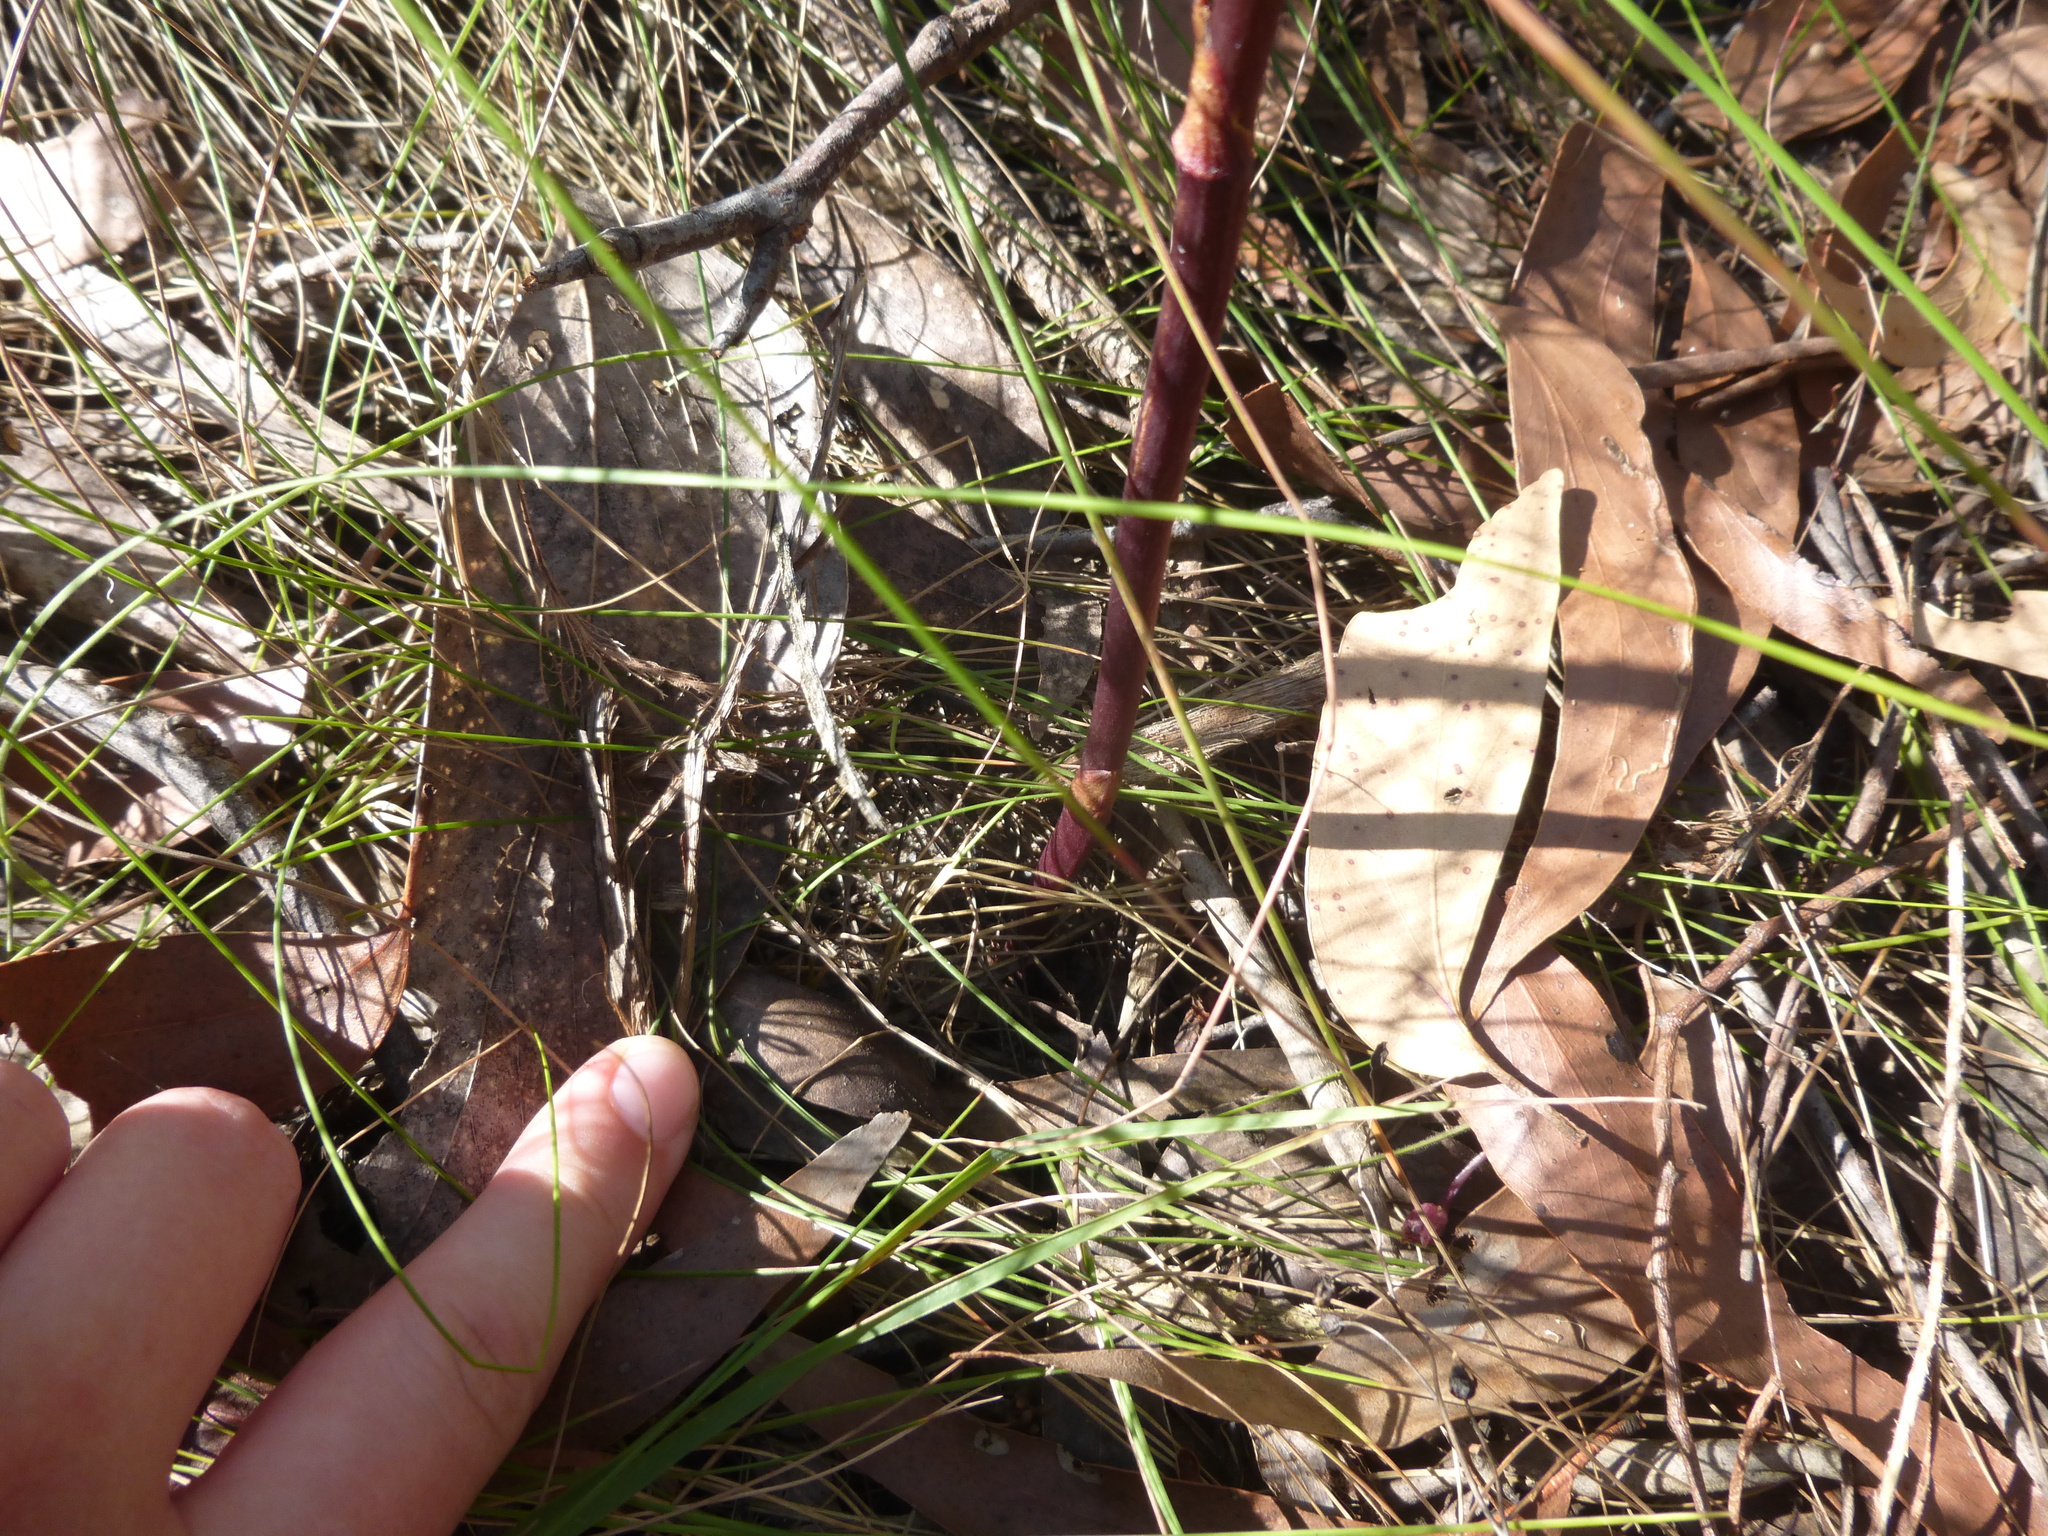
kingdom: Plantae
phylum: Tracheophyta
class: Liliopsida
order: Asparagales
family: Orchidaceae
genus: Dipodium
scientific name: Dipodium roseum
